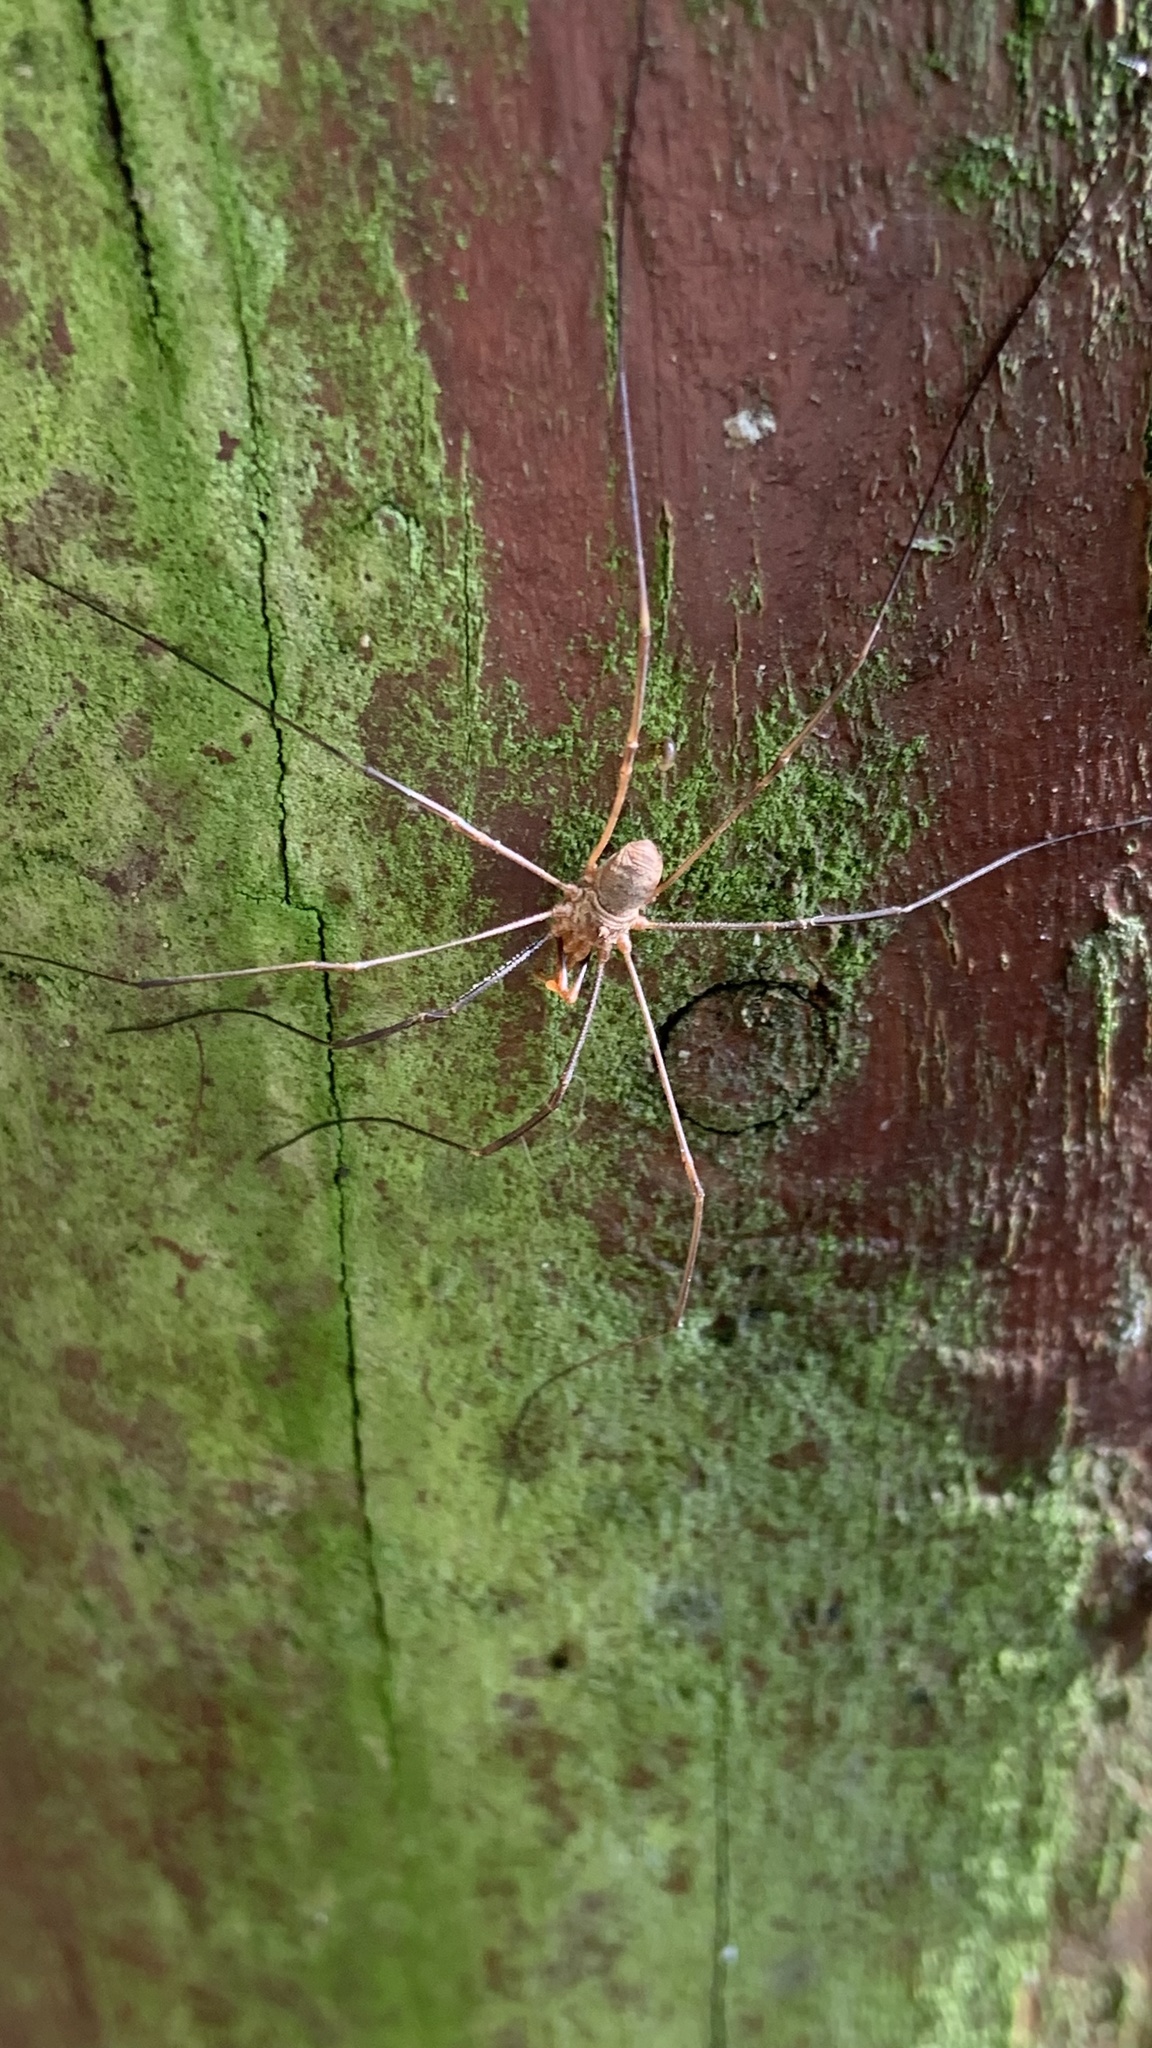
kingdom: Animalia
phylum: Arthropoda
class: Arachnida
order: Opiliones
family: Phalangiidae
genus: Phalangium
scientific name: Phalangium opilio
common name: Daddy longleg
